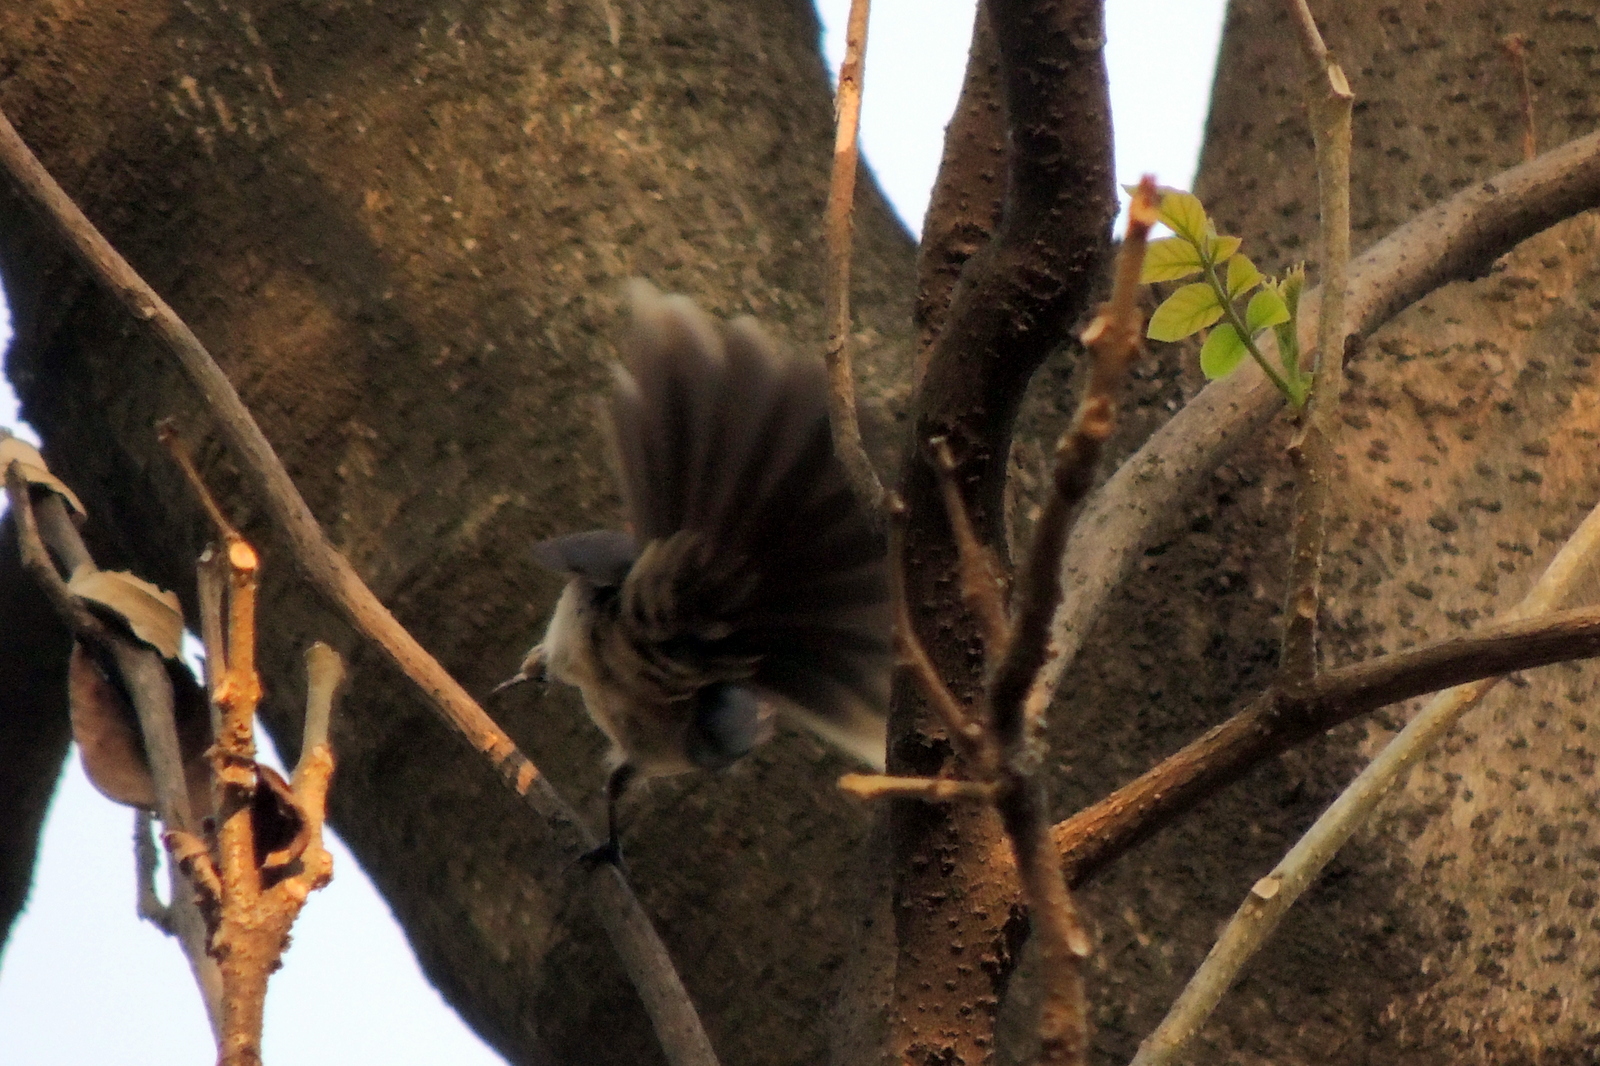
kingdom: Animalia
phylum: Chordata
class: Aves
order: Passeriformes
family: Rhipiduridae
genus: Rhipidura
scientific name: Rhipidura albogularis
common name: White-spotted fantail
